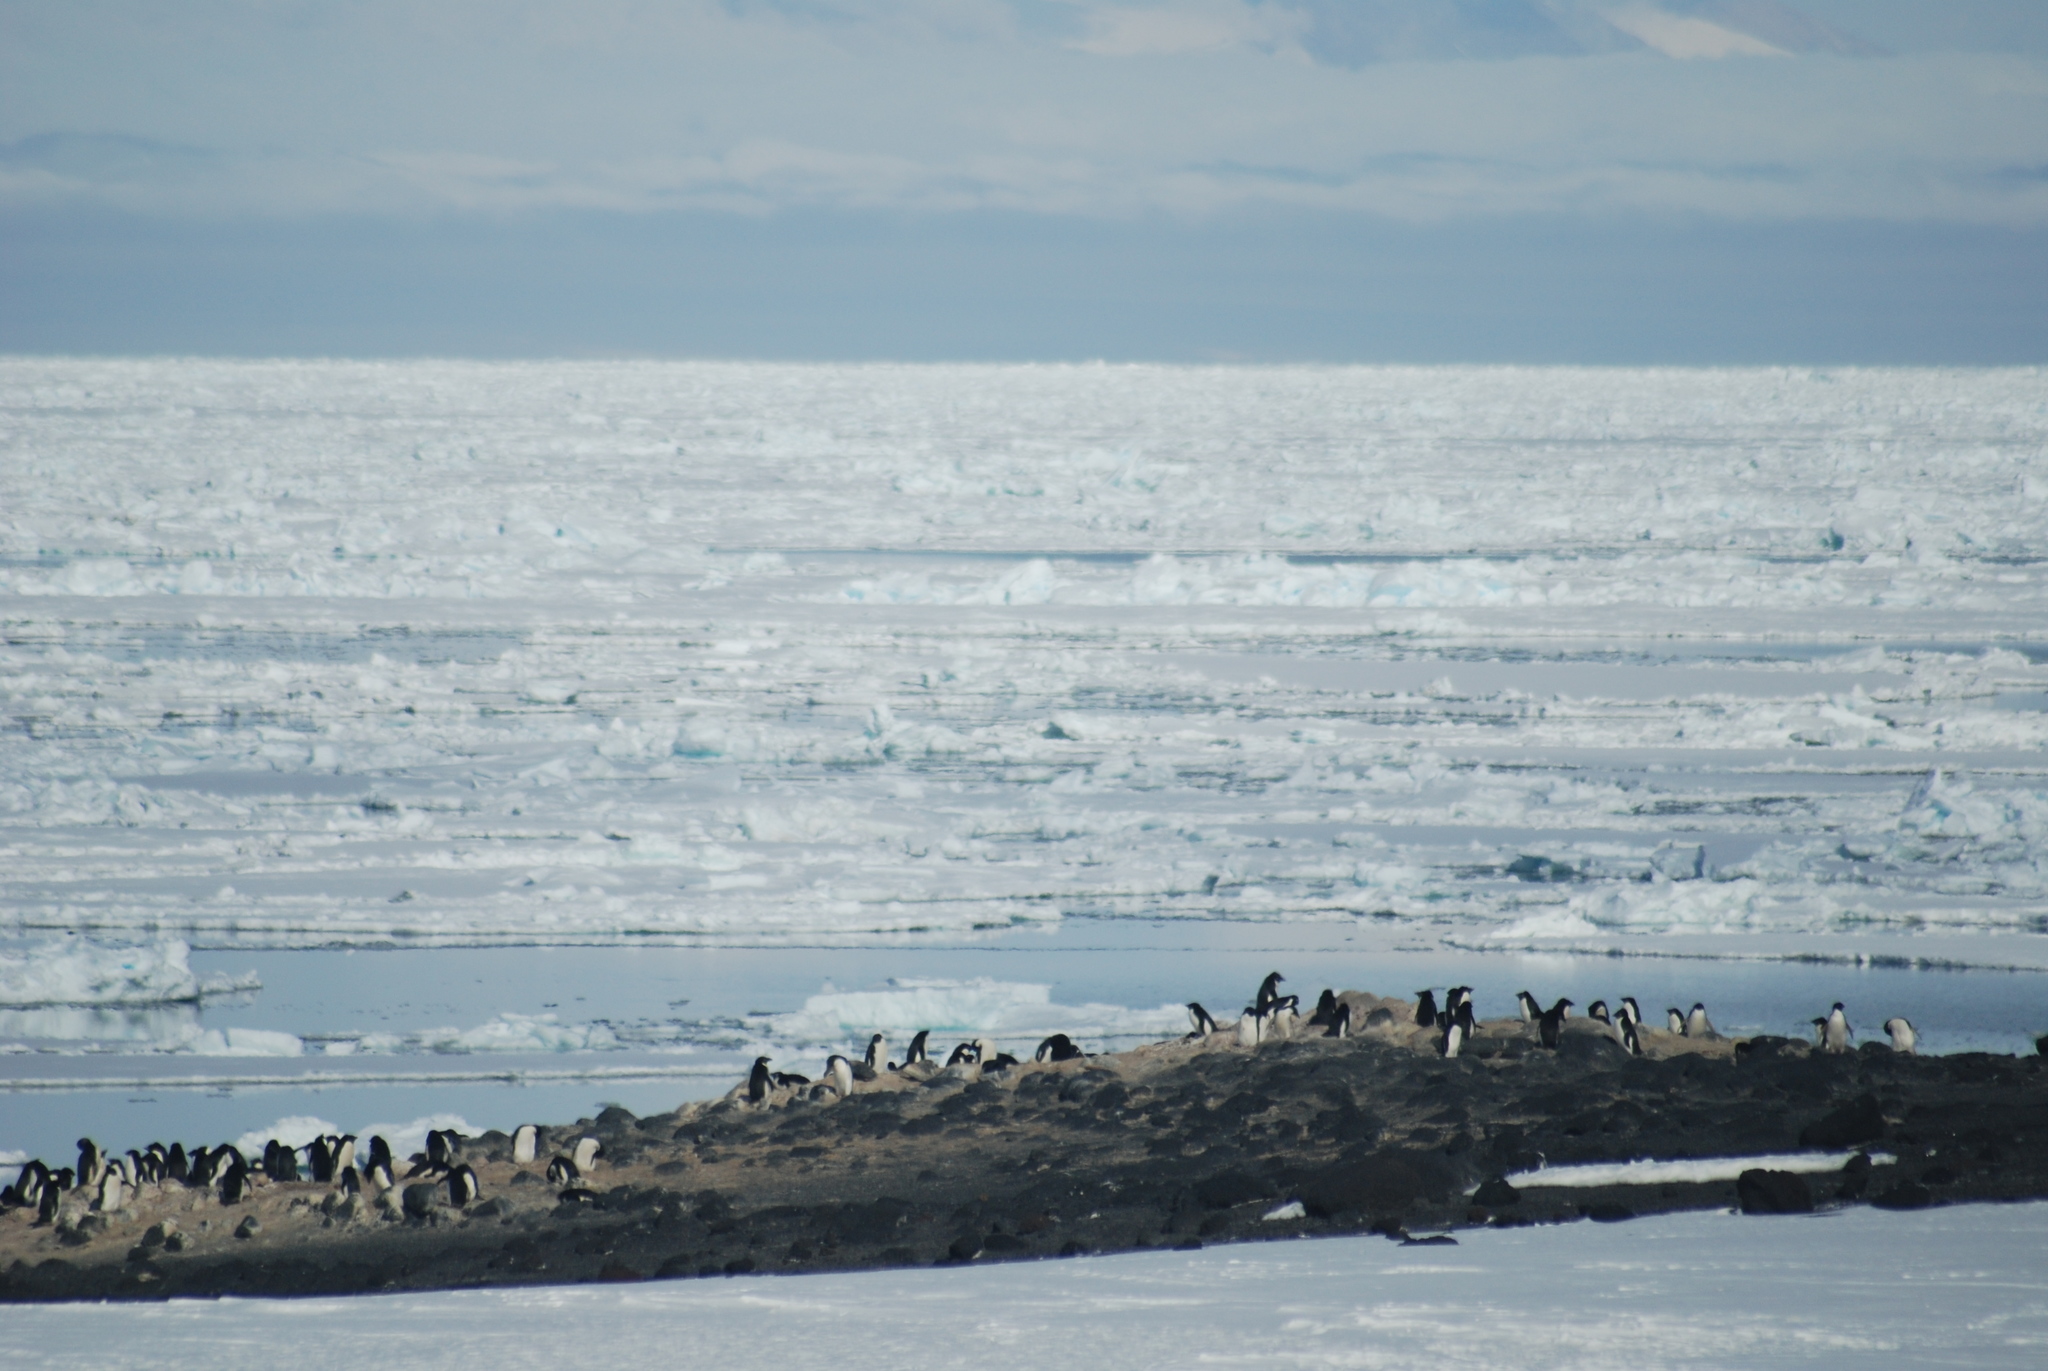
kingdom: Animalia
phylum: Chordata
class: Aves
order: Sphenisciformes
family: Spheniscidae
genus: Pygoscelis
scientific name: Pygoscelis adeliae
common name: Adelie penguin
